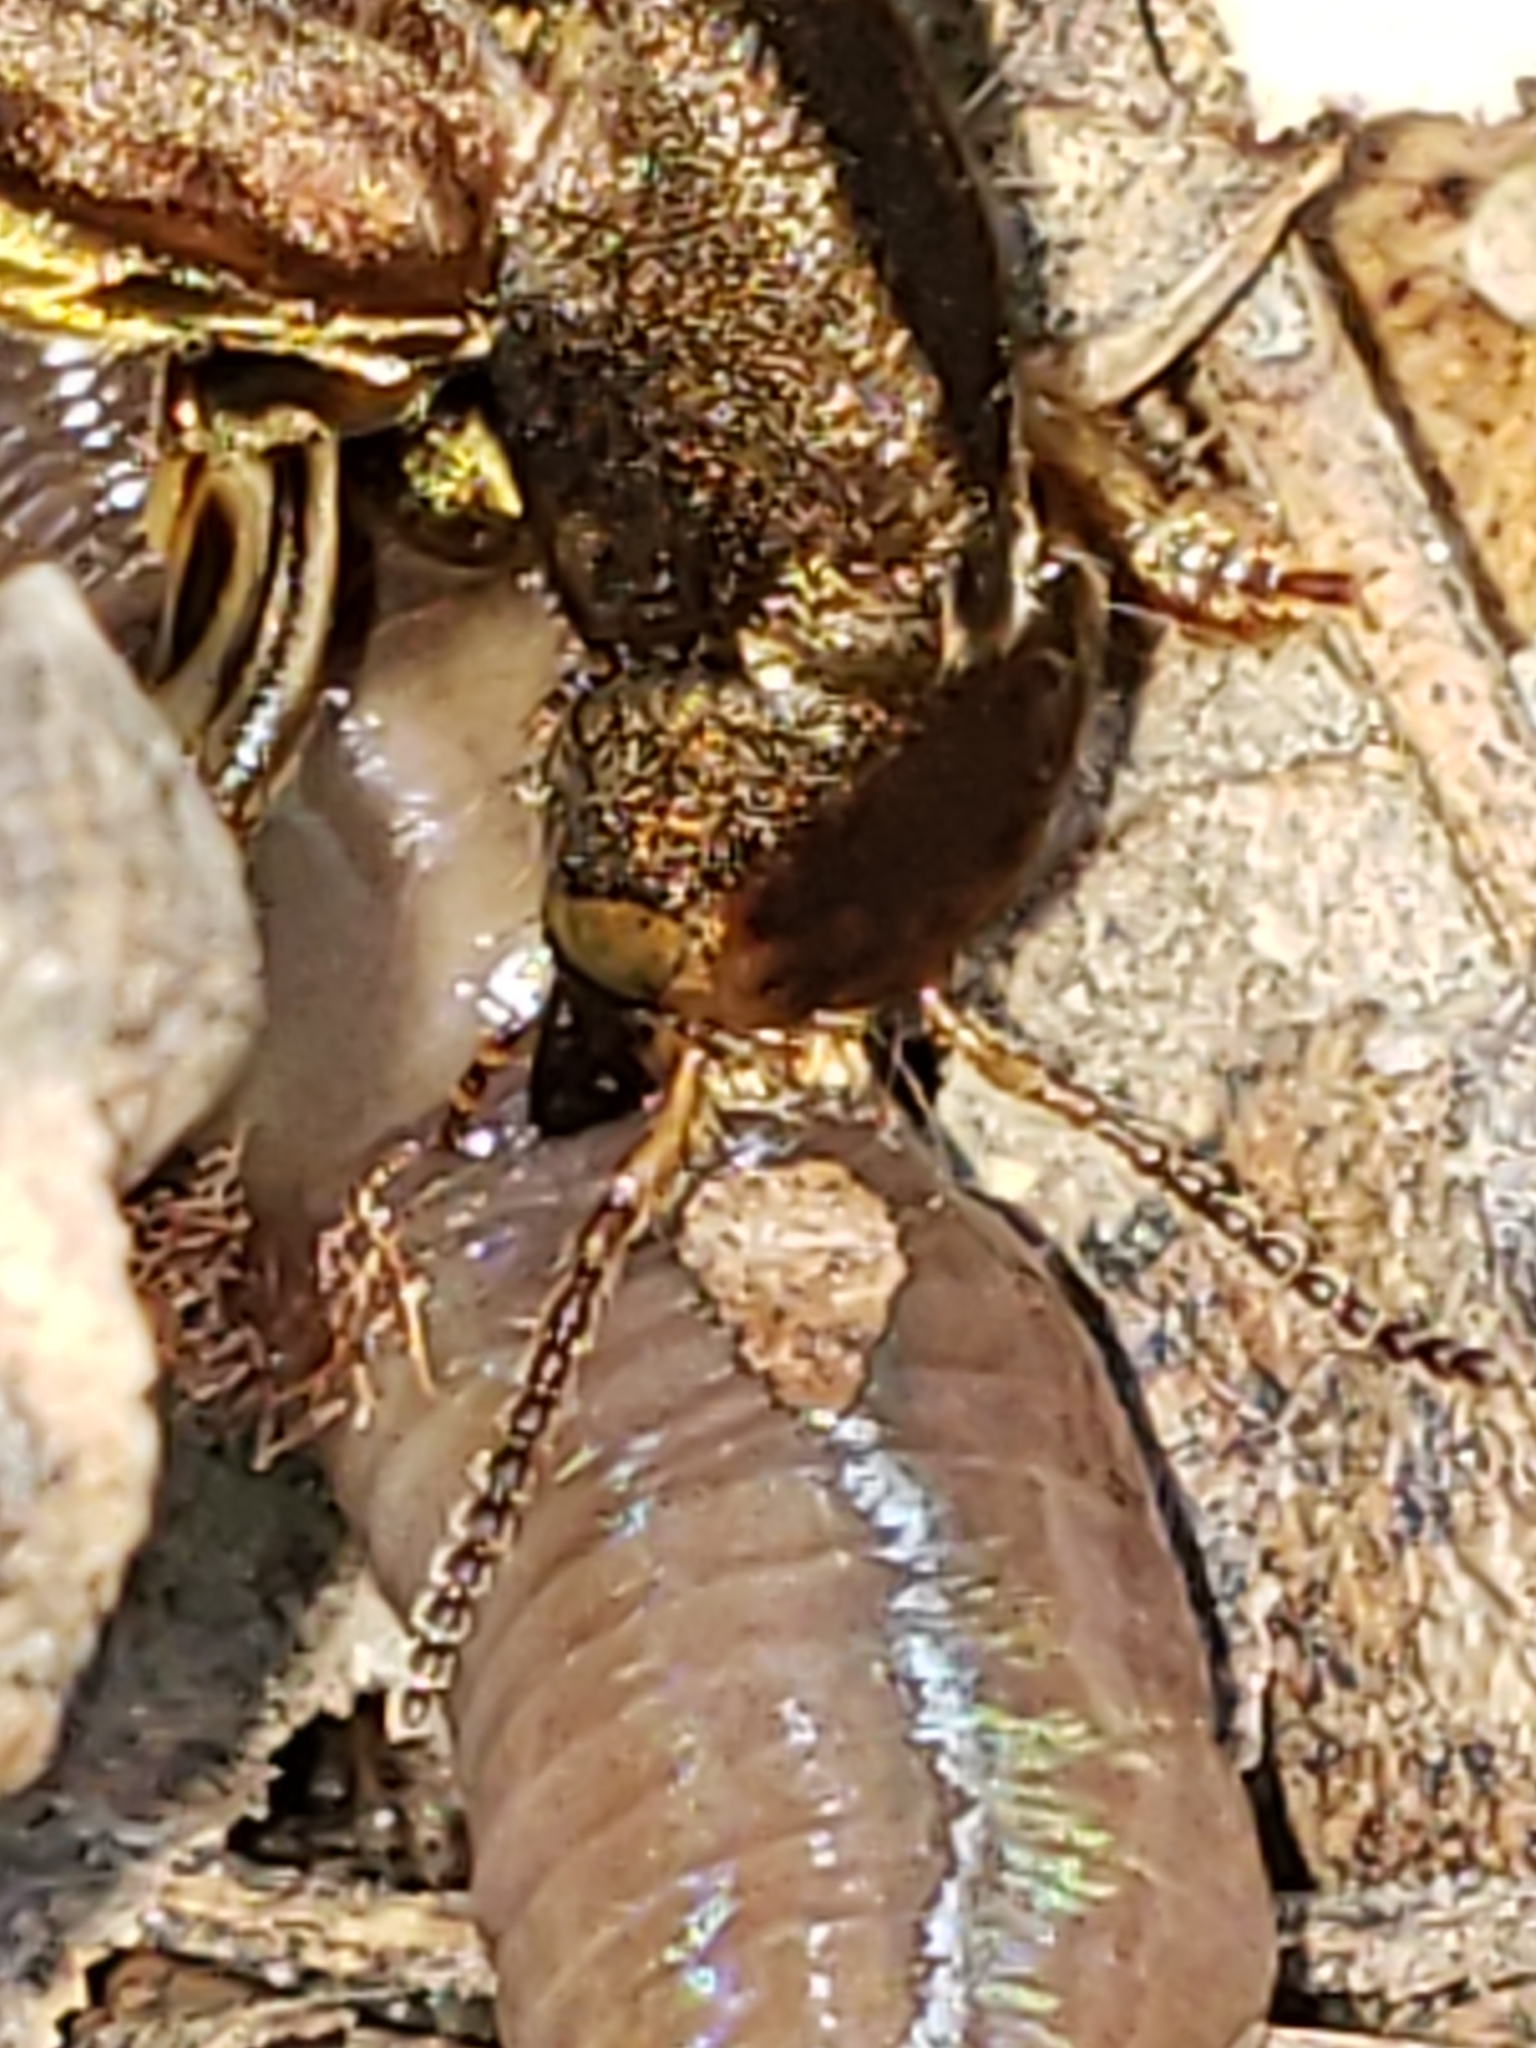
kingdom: Animalia
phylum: Arthropoda
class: Insecta
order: Coleoptera
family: Staphylinidae
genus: Platydracus
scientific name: Platydracus maculosus
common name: Brown rove beetle
